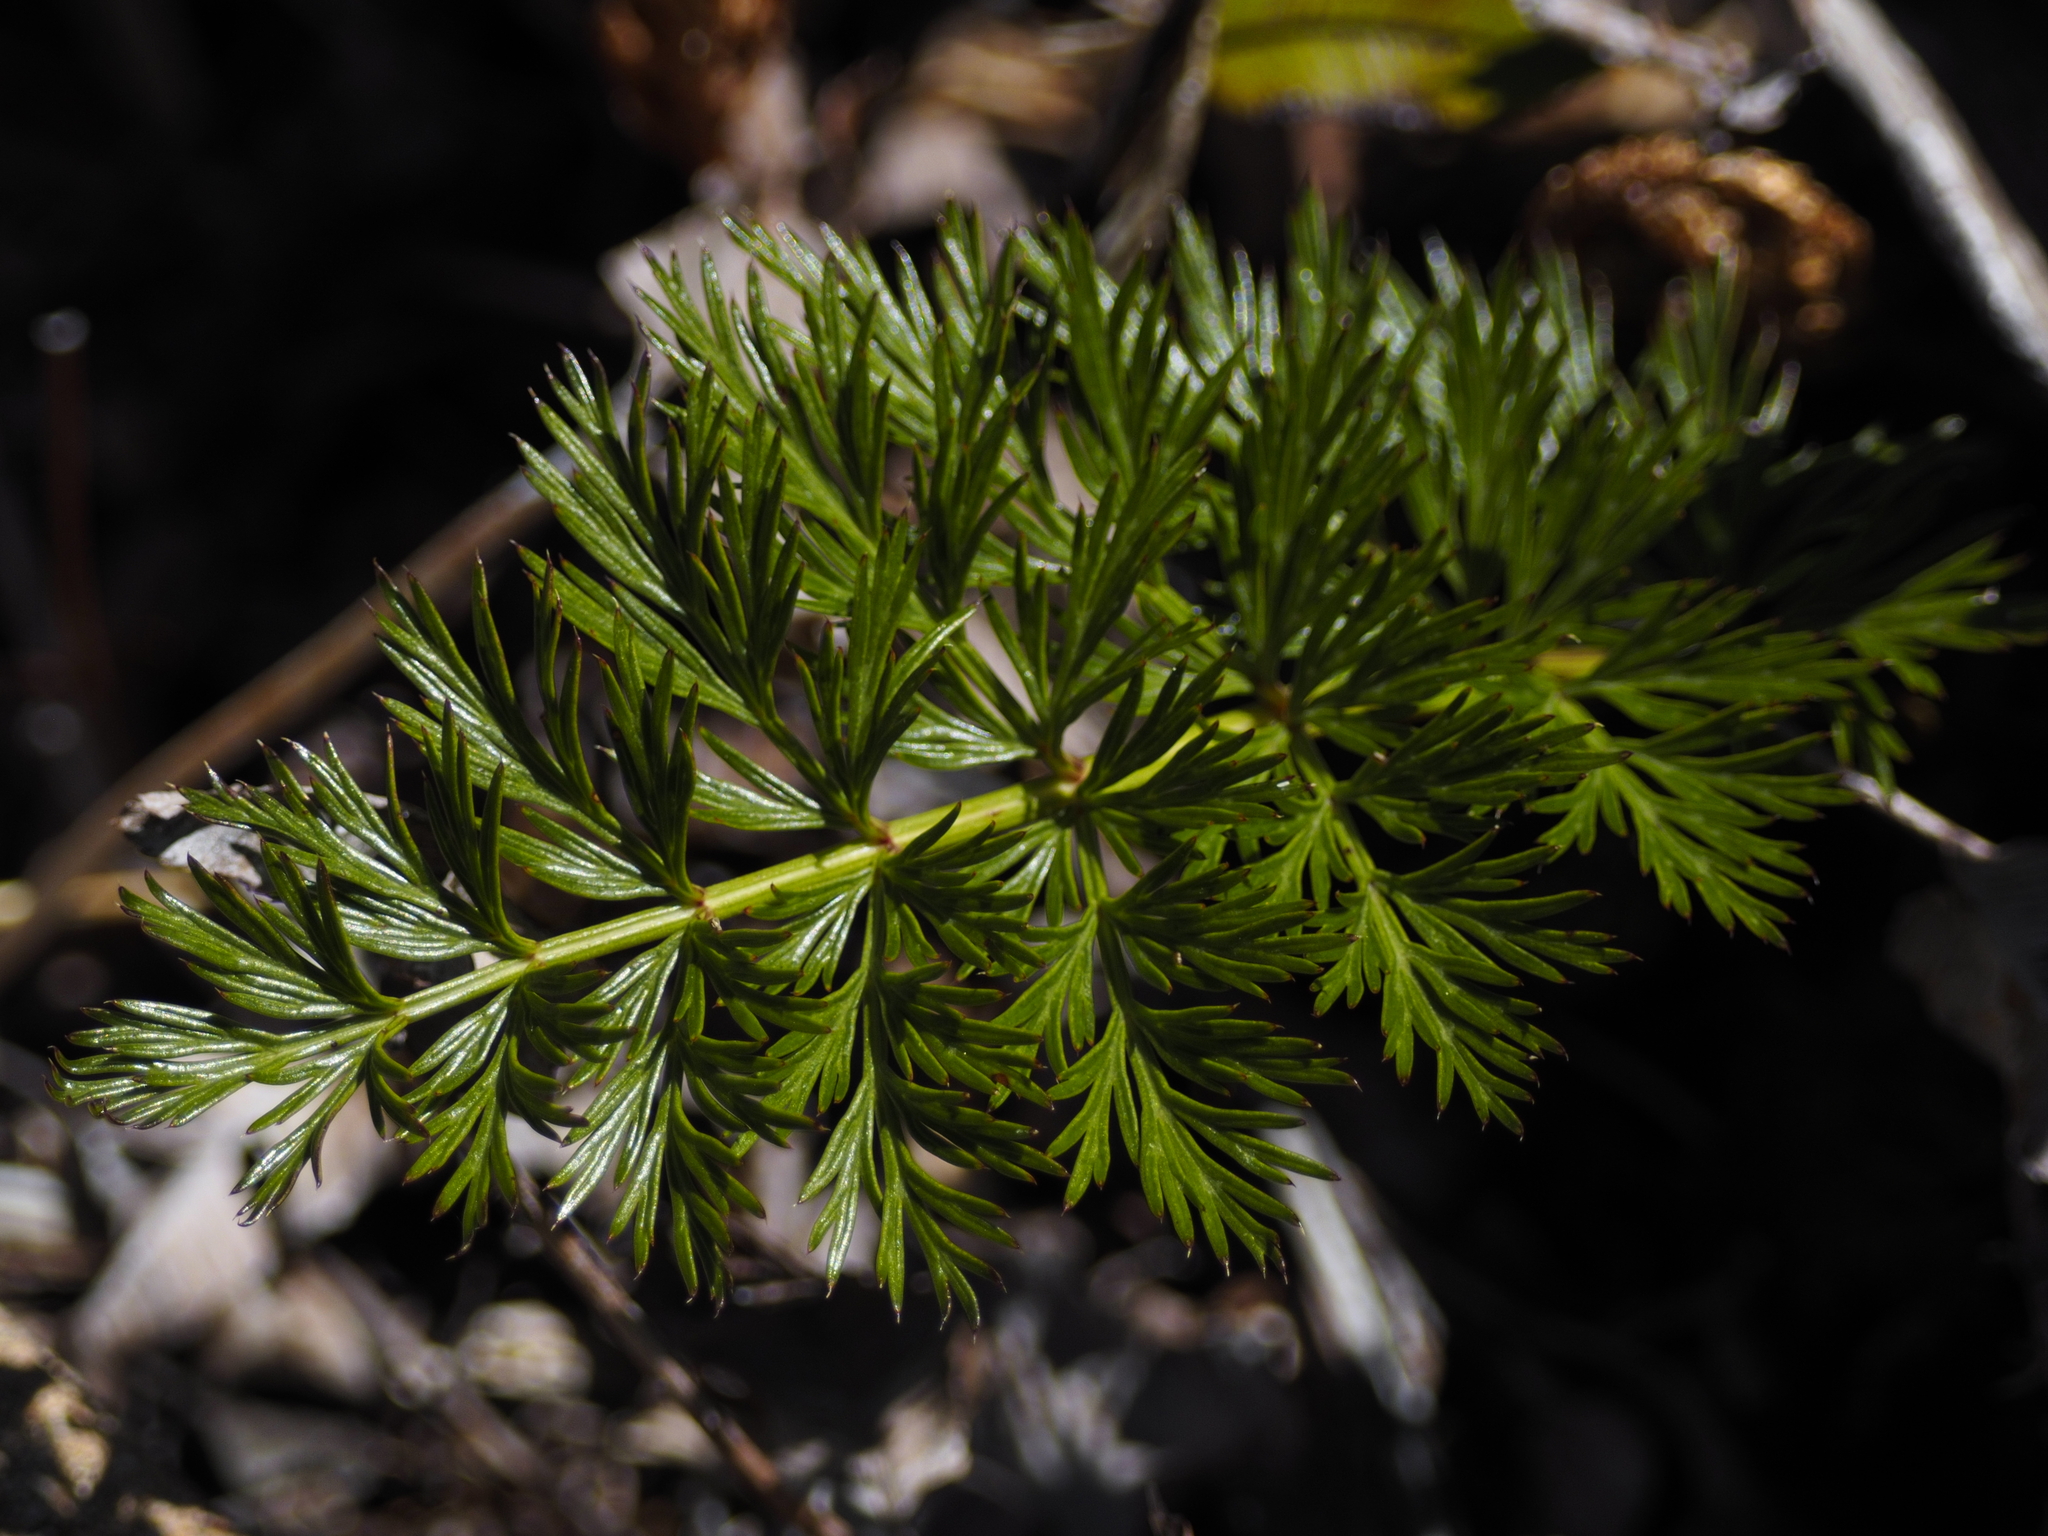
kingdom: Plantae
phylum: Tracheophyta
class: Magnoliopsida
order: Apiales
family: Apiaceae
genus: Anisotome
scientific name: Anisotome haastii
